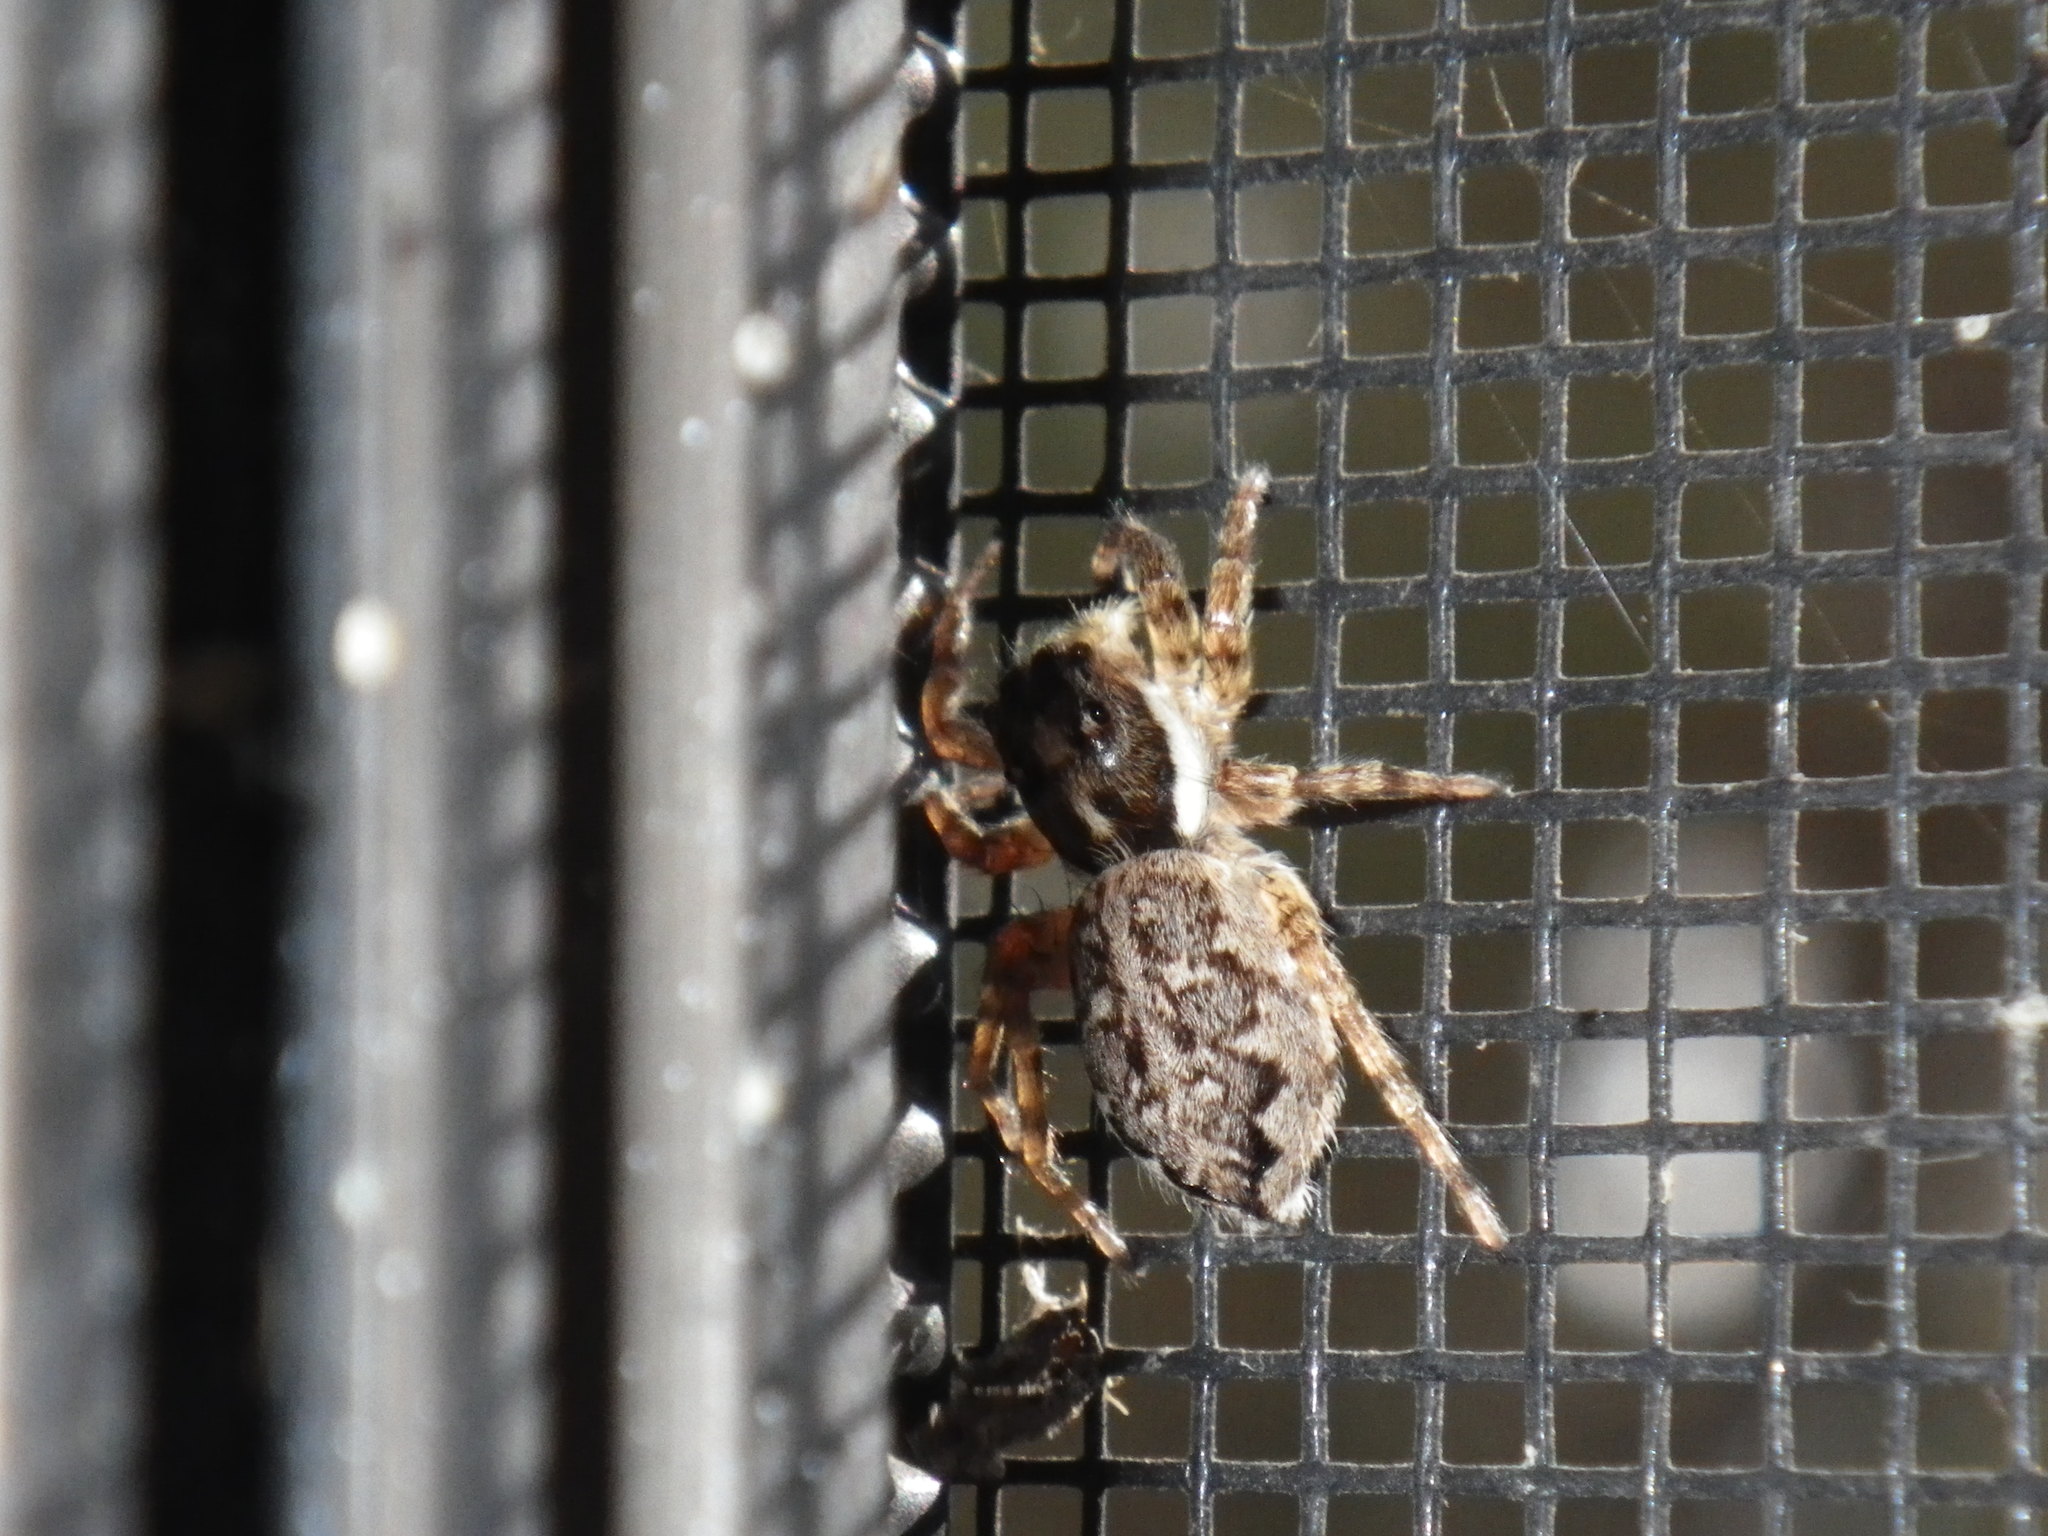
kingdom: Animalia
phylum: Arthropoda
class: Arachnida
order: Araneae
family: Salticidae
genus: Menemerus
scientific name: Menemerus semilimbatus
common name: Jumping spider
